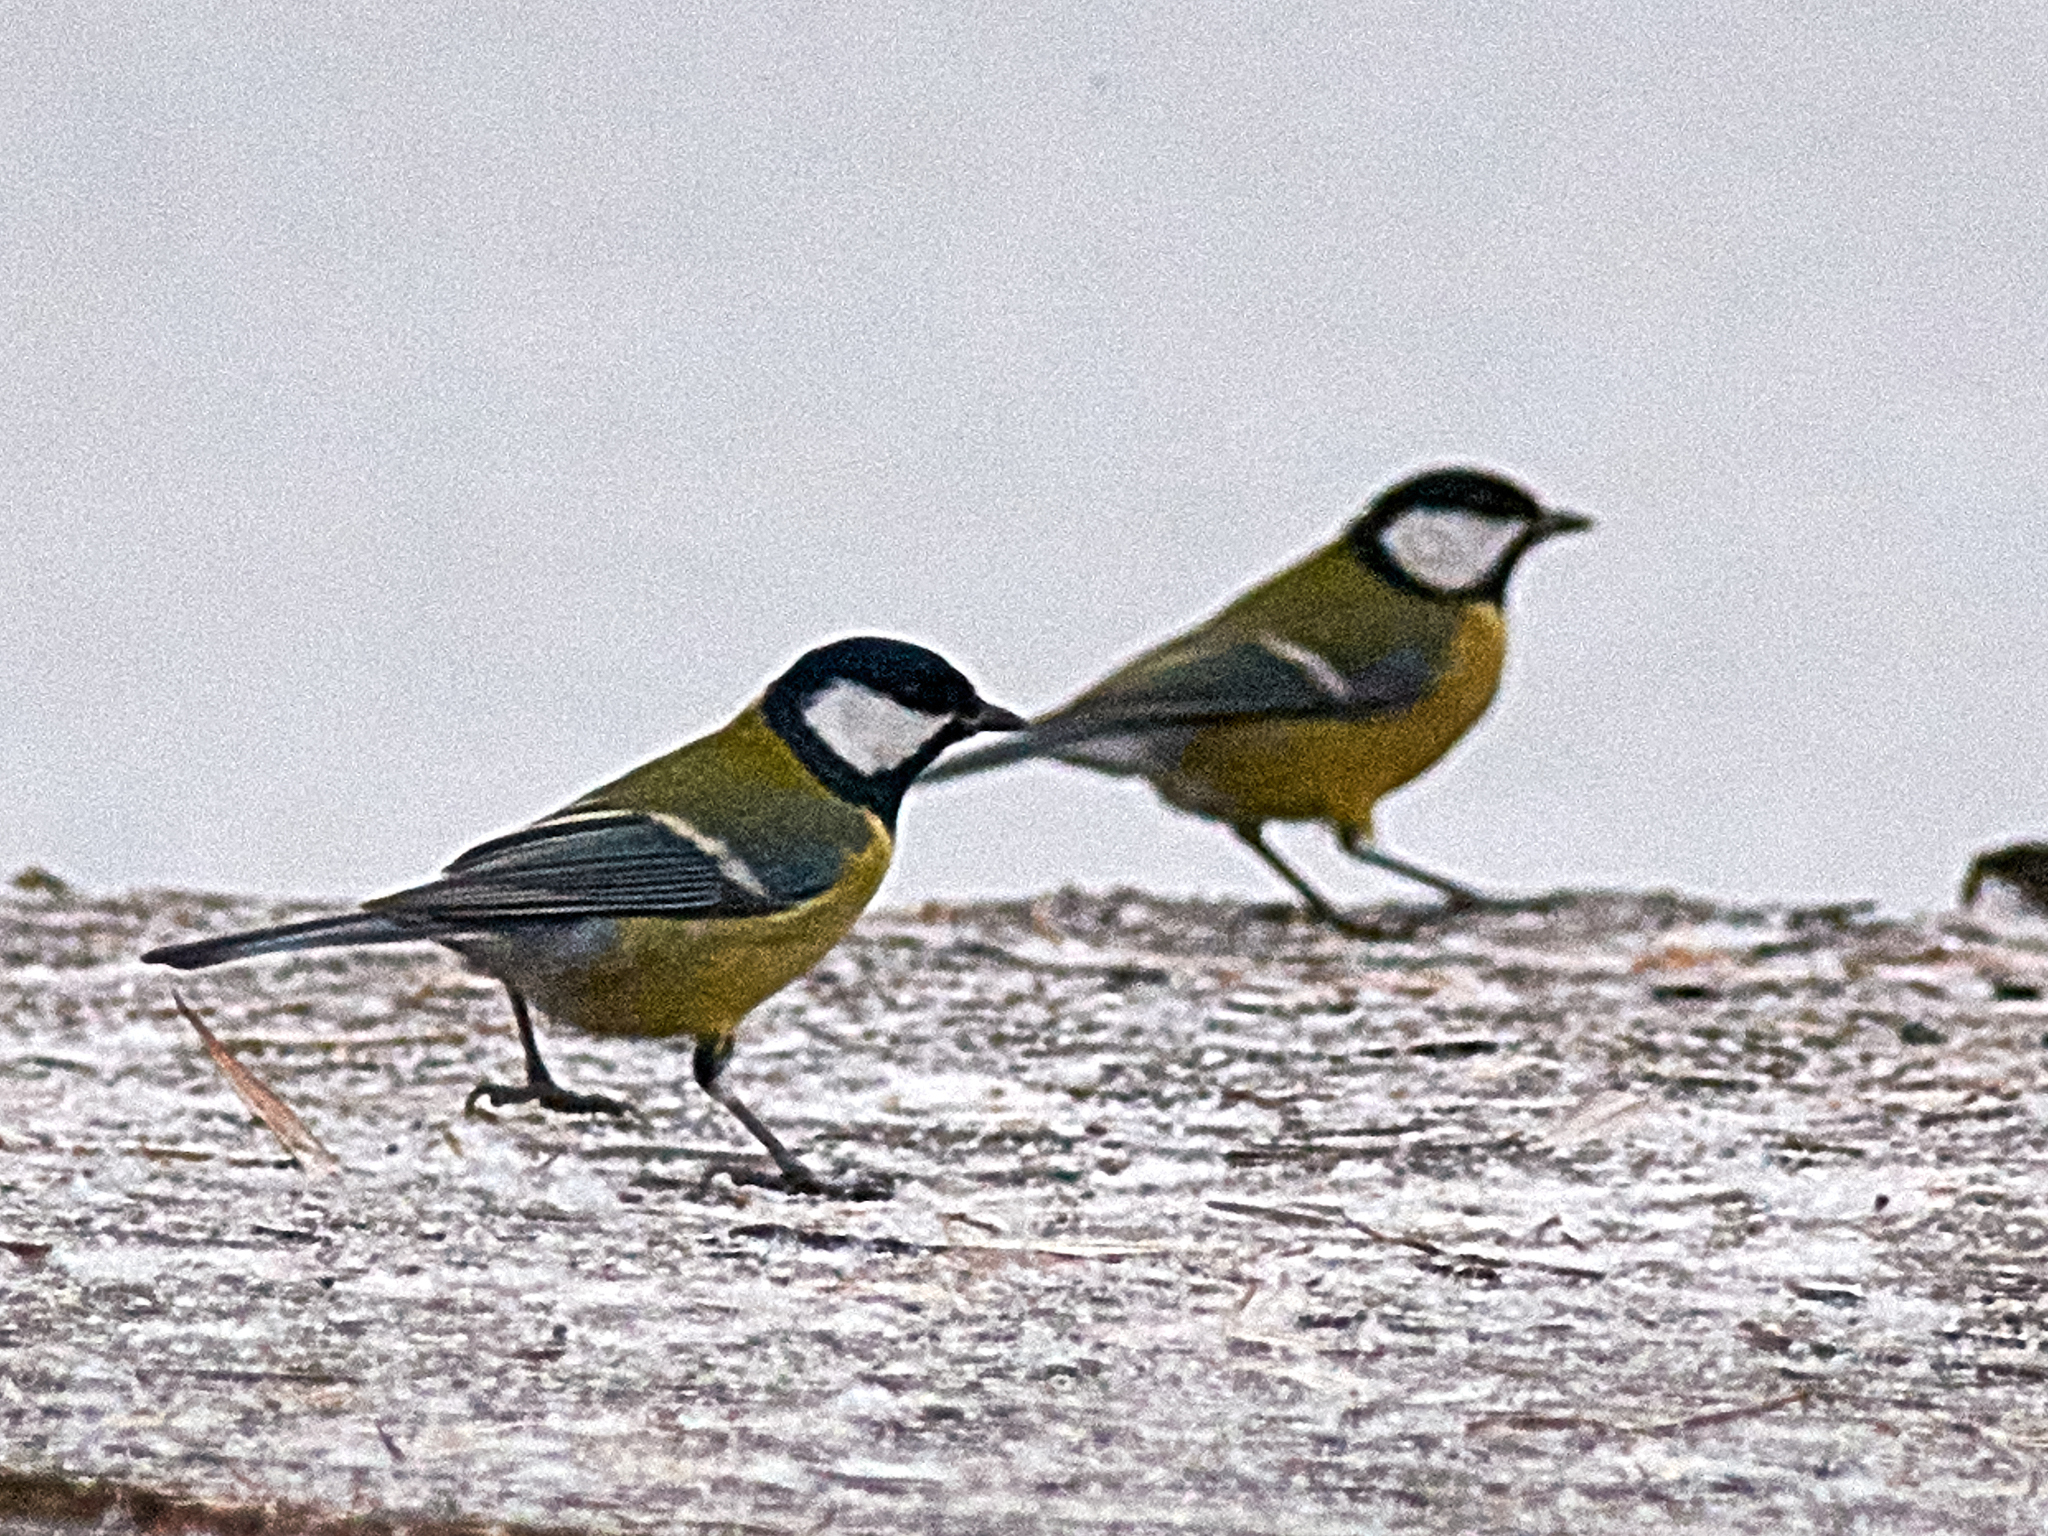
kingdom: Animalia
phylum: Chordata
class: Aves
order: Passeriformes
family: Paridae
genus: Parus
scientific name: Parus major
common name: Great tit
